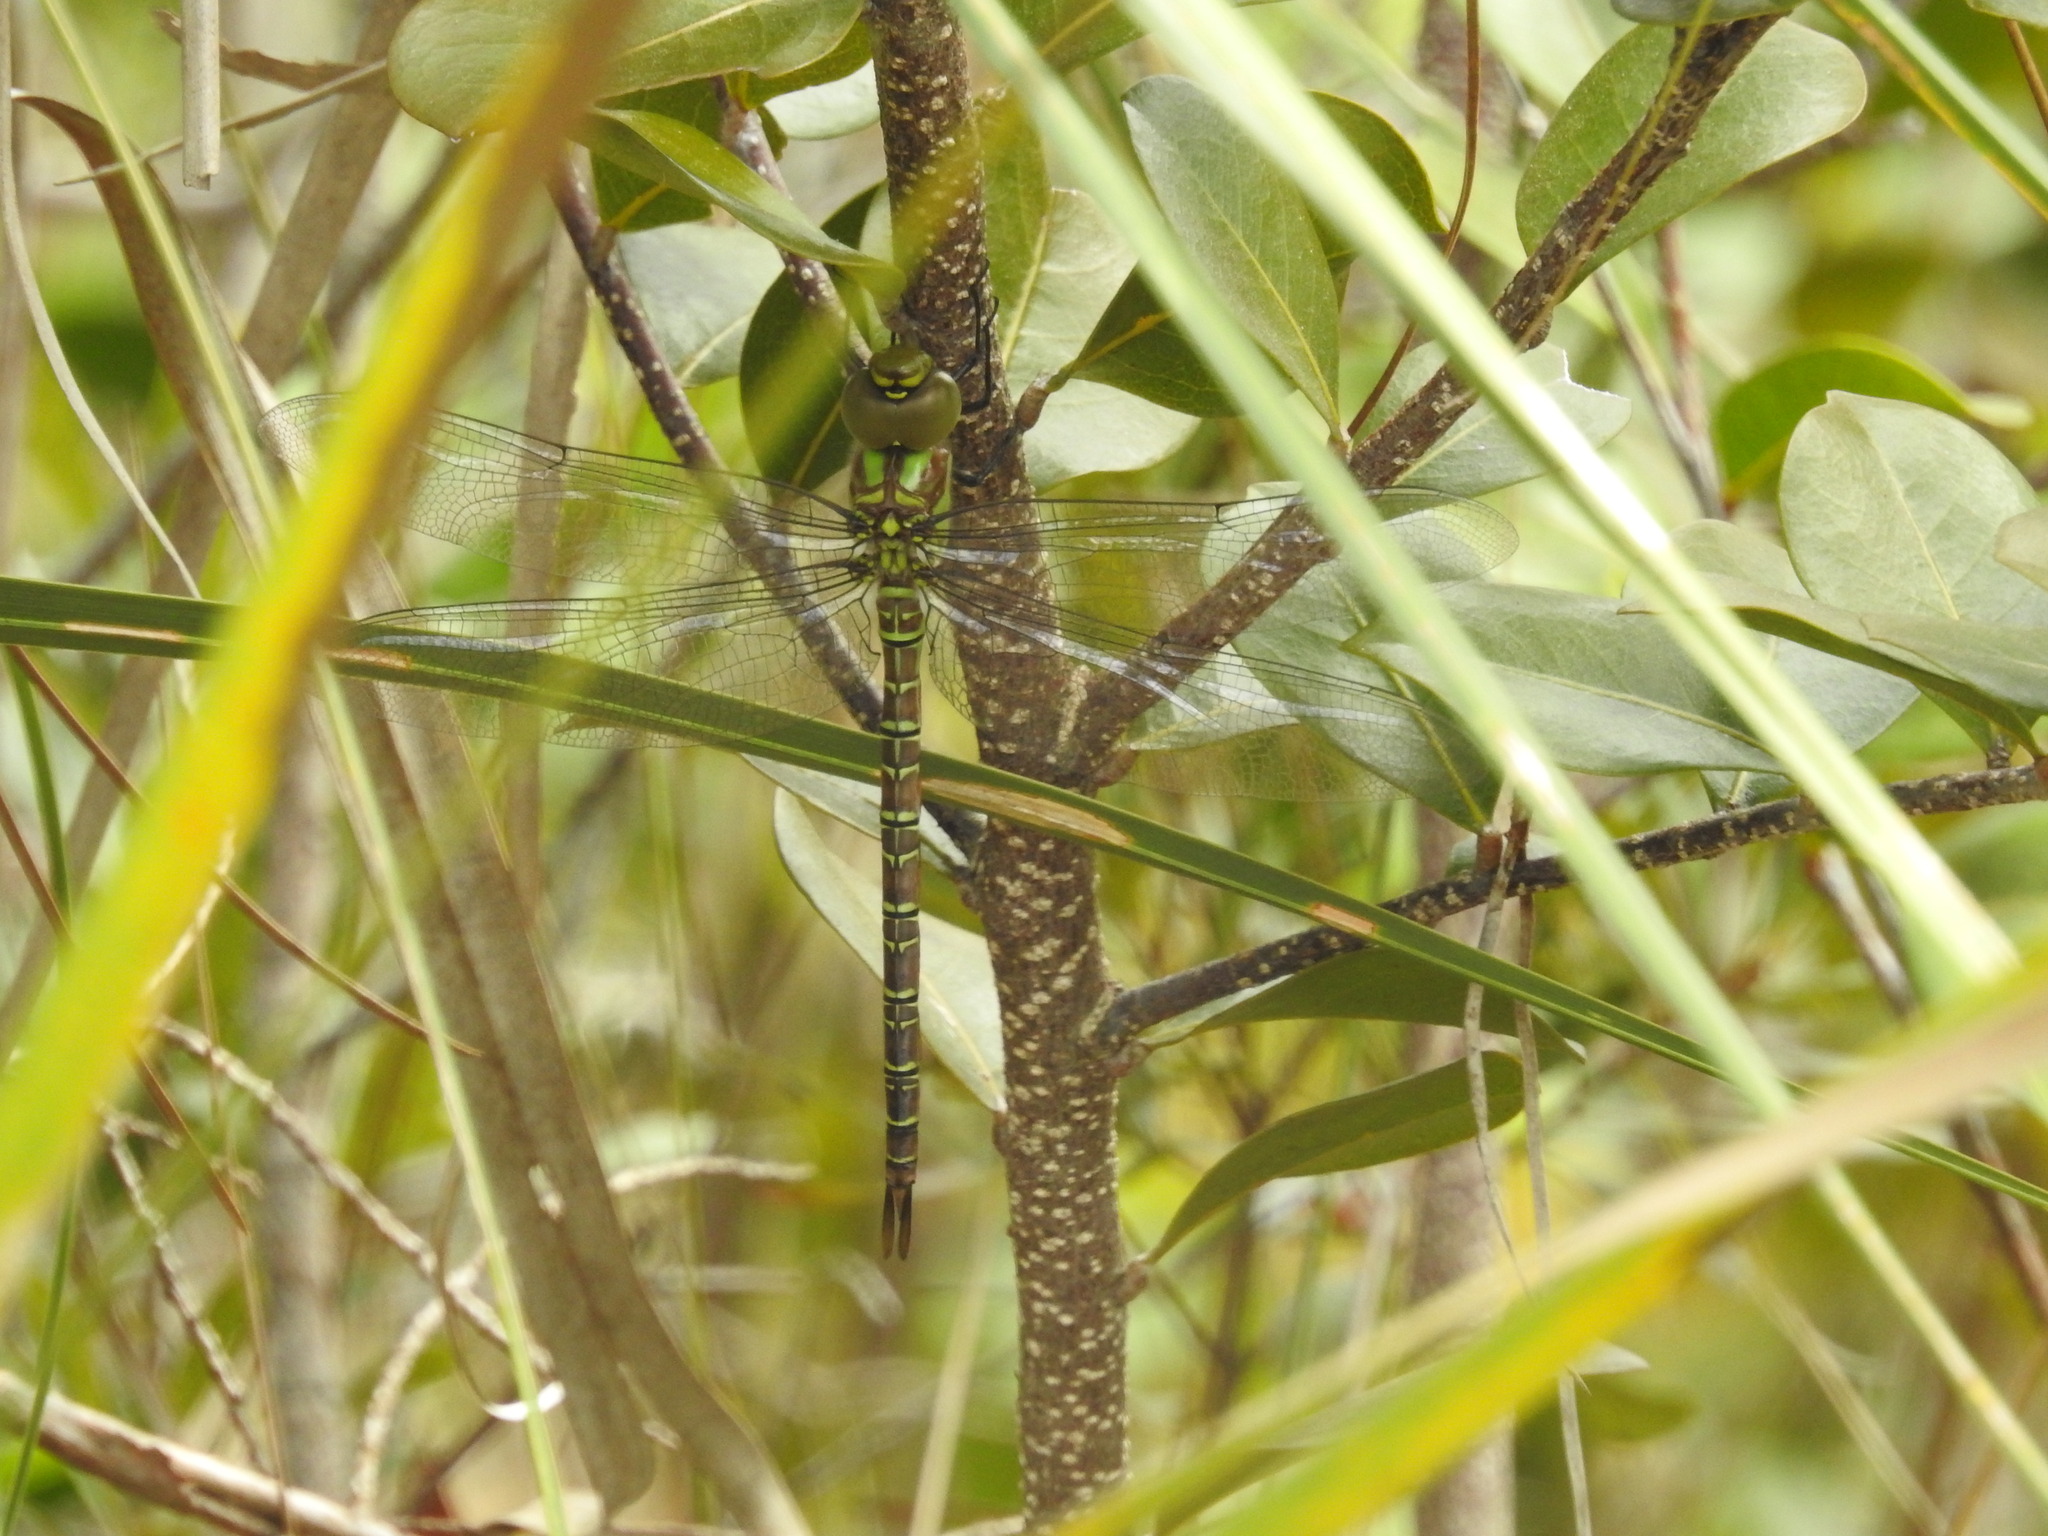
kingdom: Animalia
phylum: Arthropoda
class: Insecta
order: Odonata
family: Aeshnidae
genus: Coryphaeschna
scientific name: Coryphaeschna ingens
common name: Regal darner
